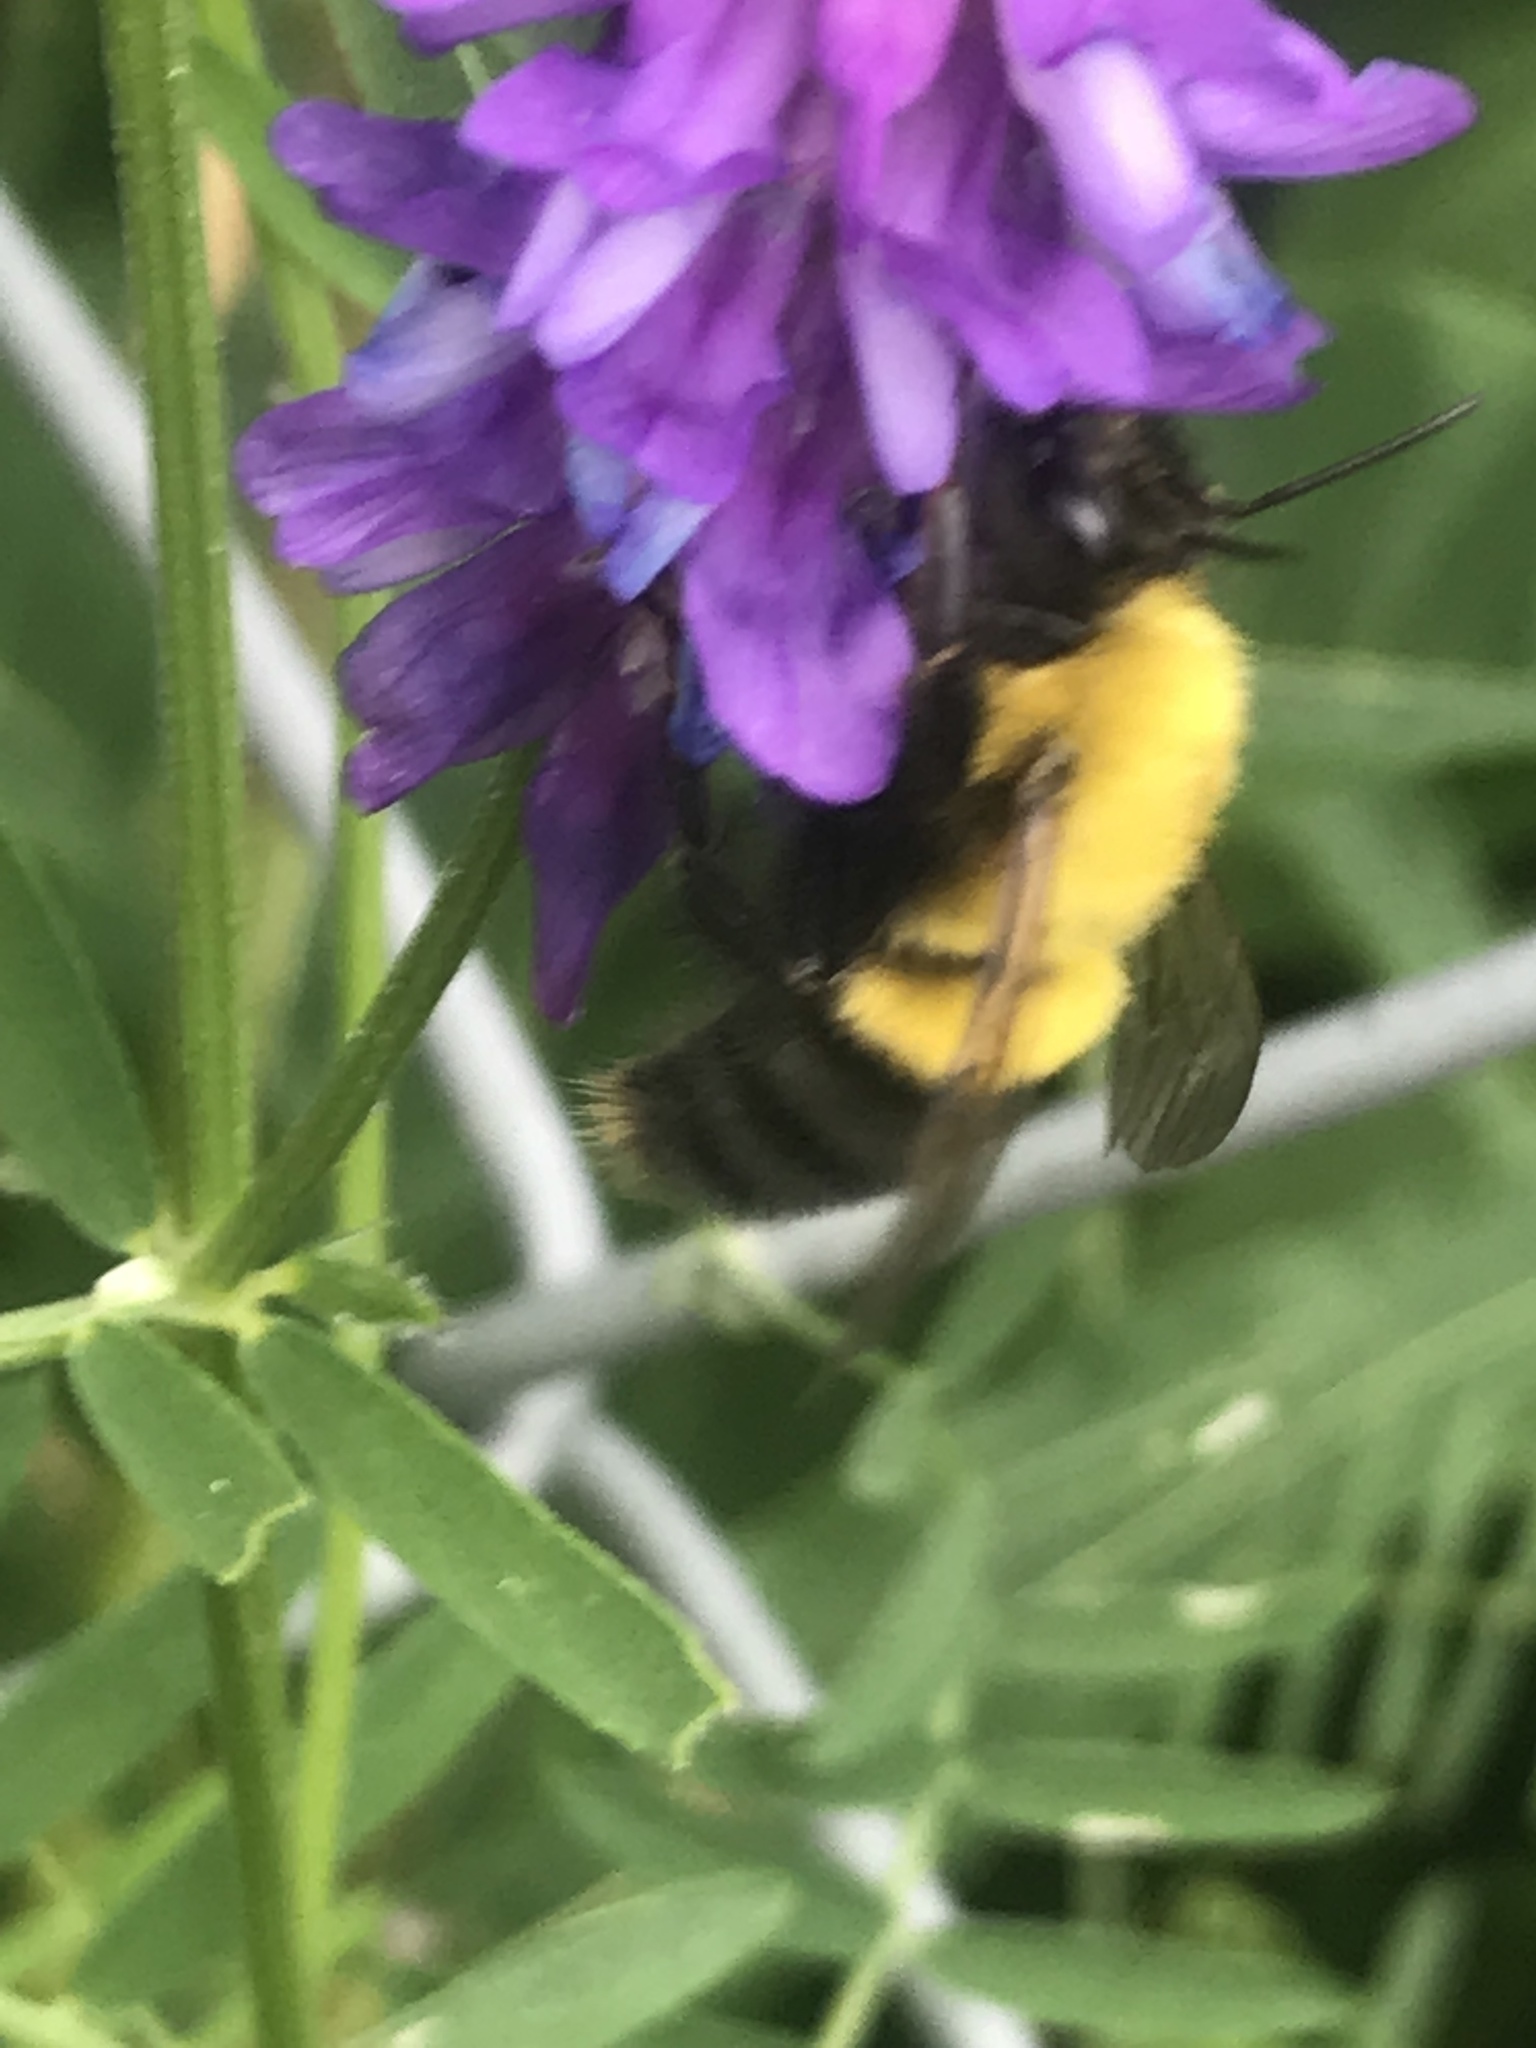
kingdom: Animalia
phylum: Arthropoda
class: Insecta
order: Hymenoptera
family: Apidae
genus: Bombus
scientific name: Bombus perplexus
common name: Confusing bumble bee
